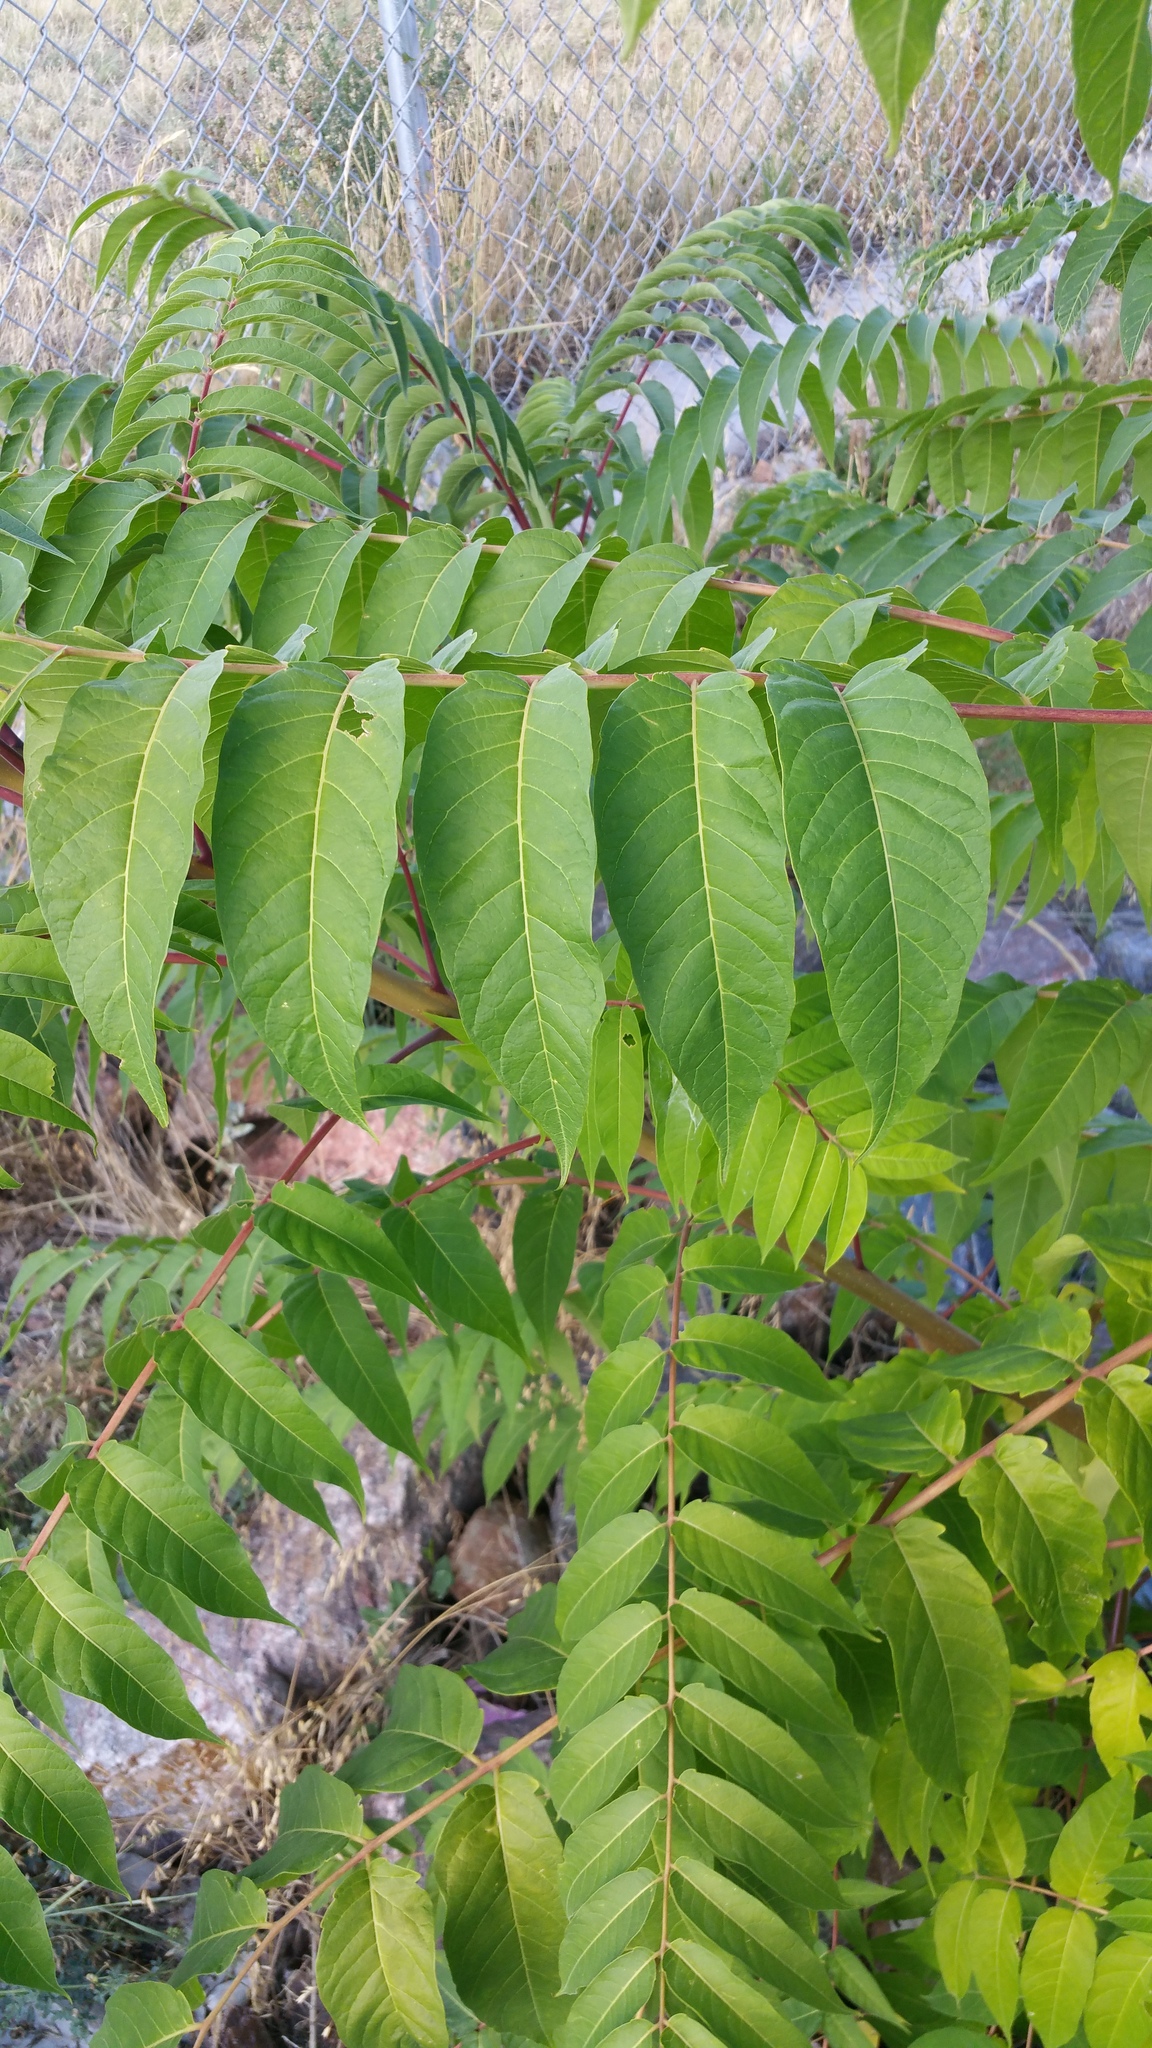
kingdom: Plantae
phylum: Tracheophyta
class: Magnoliopsida
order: Sapindales
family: Simaroubaceae
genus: Ailanthus
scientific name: Ailanthus altissima
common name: Tree-of-heaven
